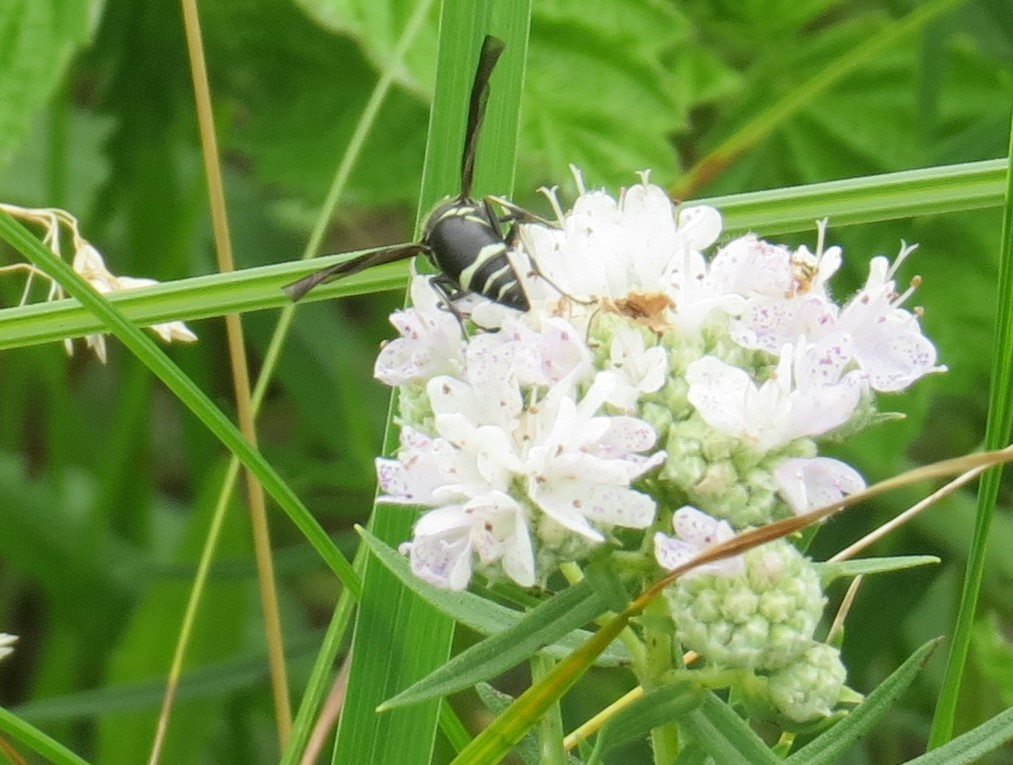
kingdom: Animalia
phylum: Arthropoda
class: Insecta
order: Hymenoptera
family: Vespidae
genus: Eumenes
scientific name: Eumenes fraternus
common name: Fraternal potter wasp
